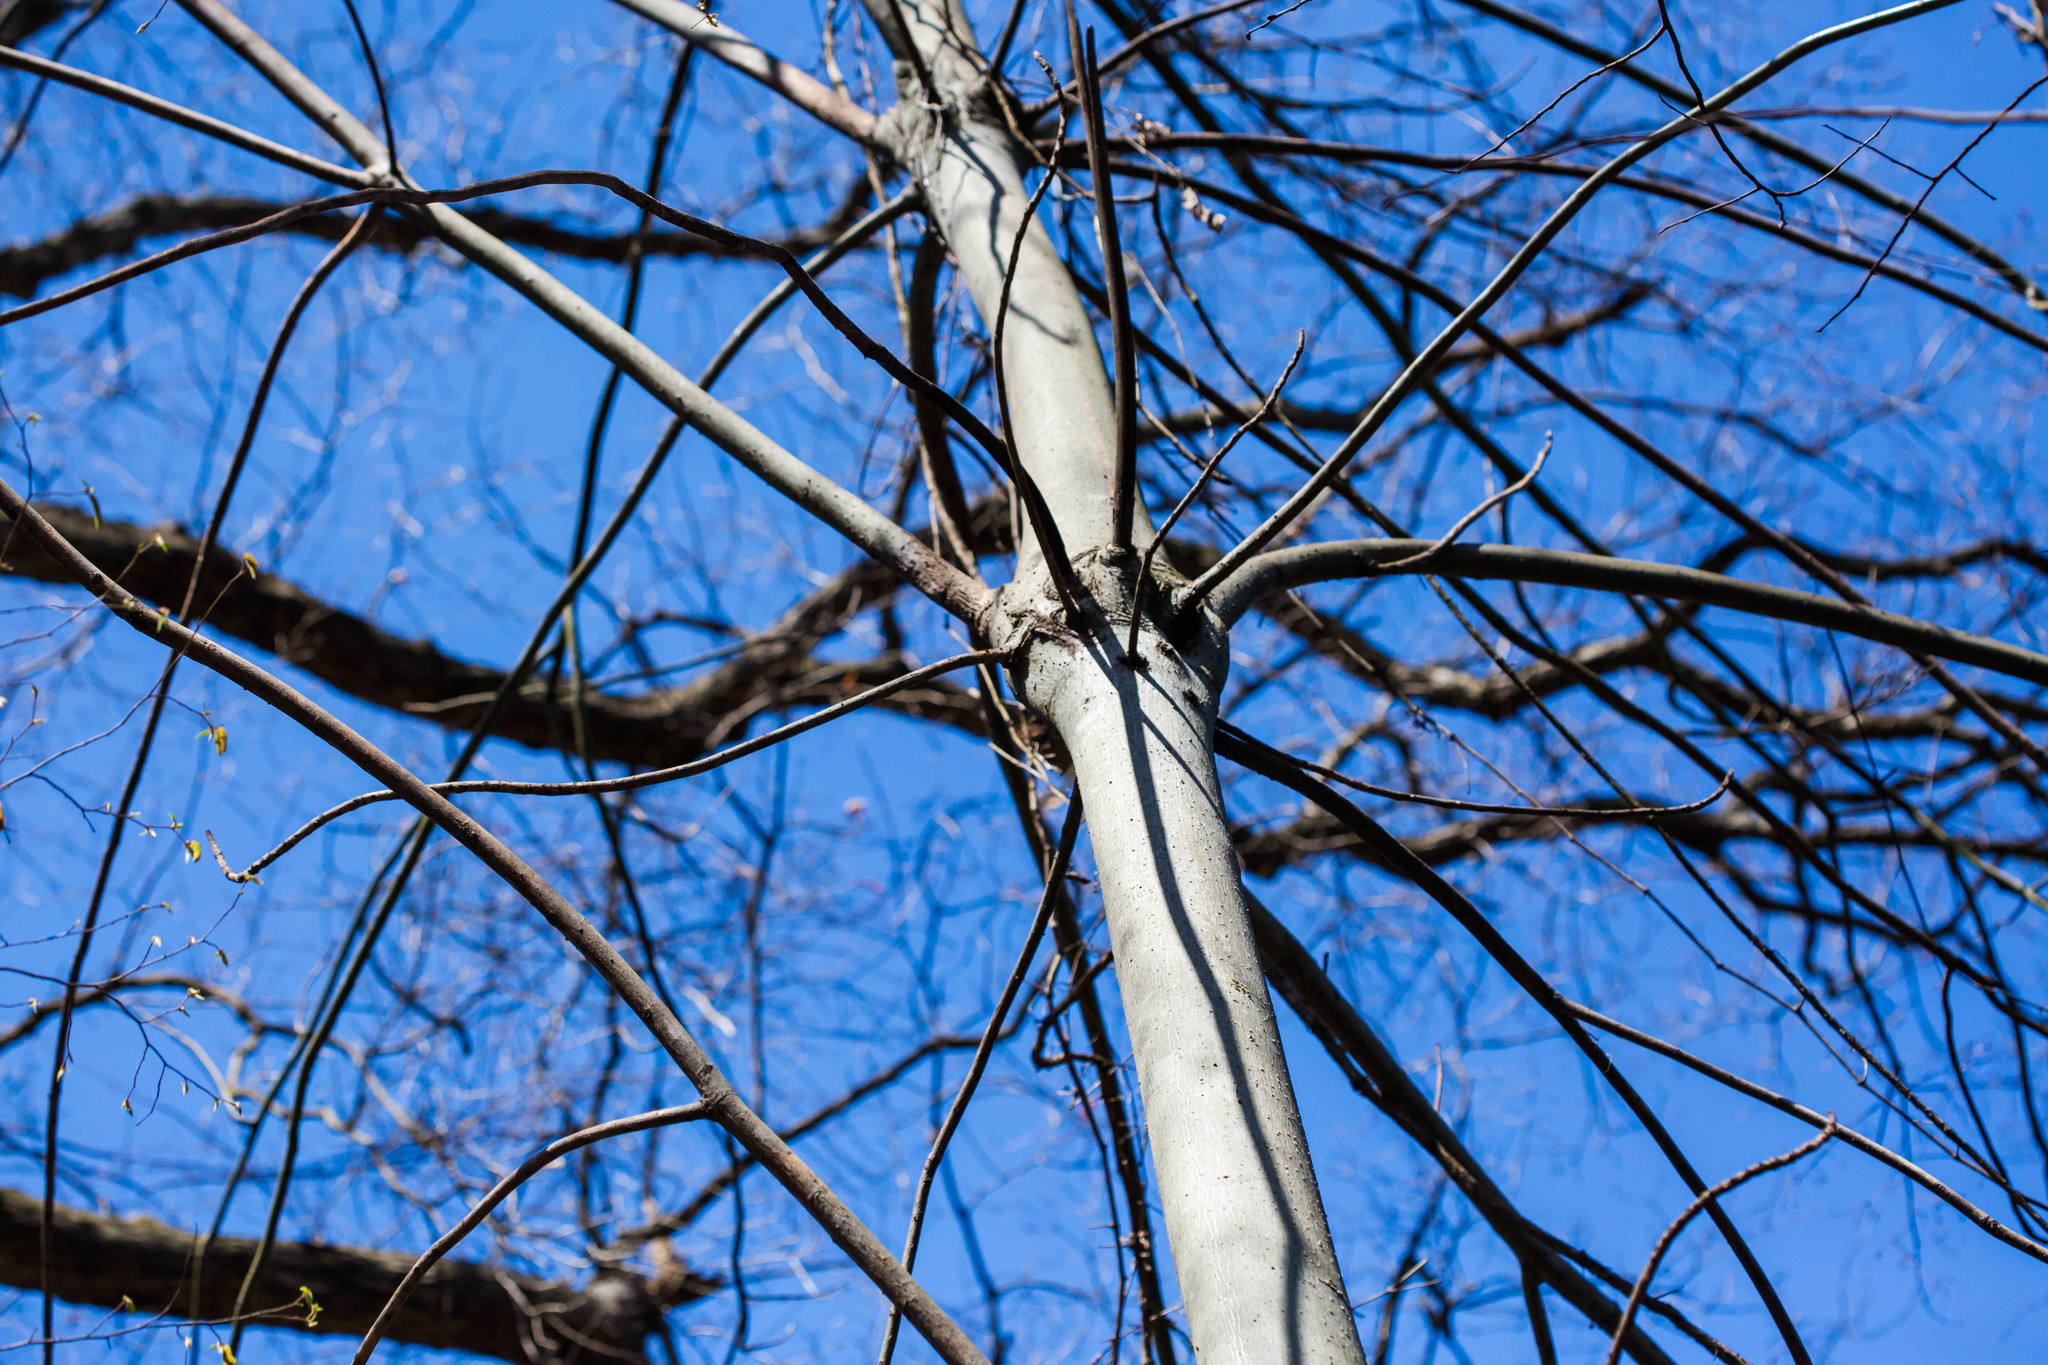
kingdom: Plantae
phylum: Tracheophyta
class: Magnoliopsida
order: Malvales
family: Malvaceae
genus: Firmiana
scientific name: Firmiana simplex
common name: Chinese parasoltree
